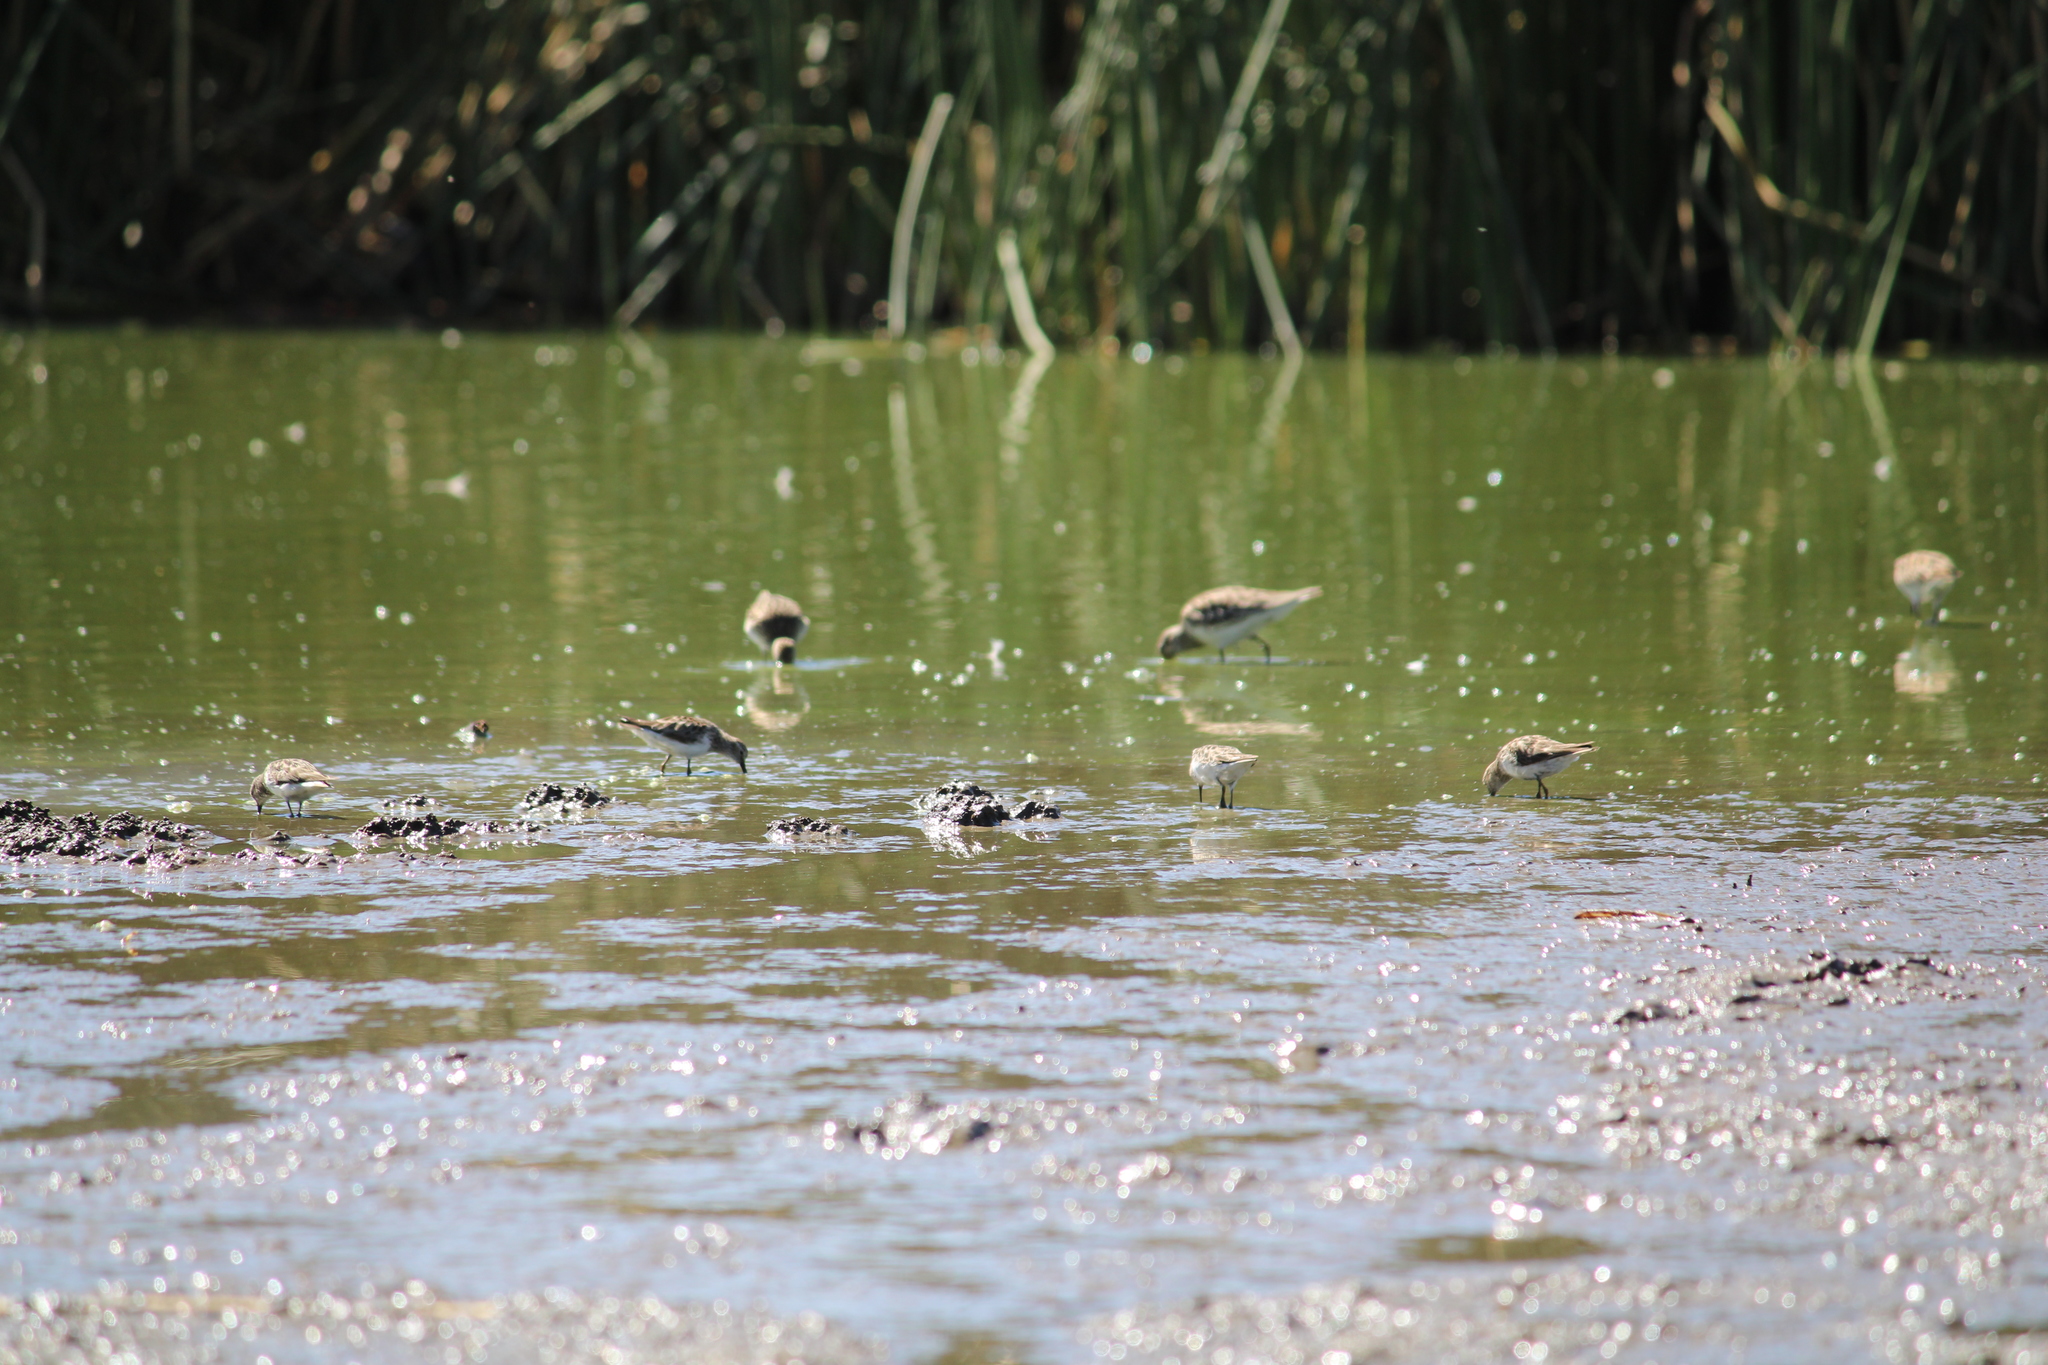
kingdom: Animalia
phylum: Chordata
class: Aves
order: Charadriiformes
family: Scolopacidae
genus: Calidris
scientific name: Calidris minutilla
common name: Least sandpiper
